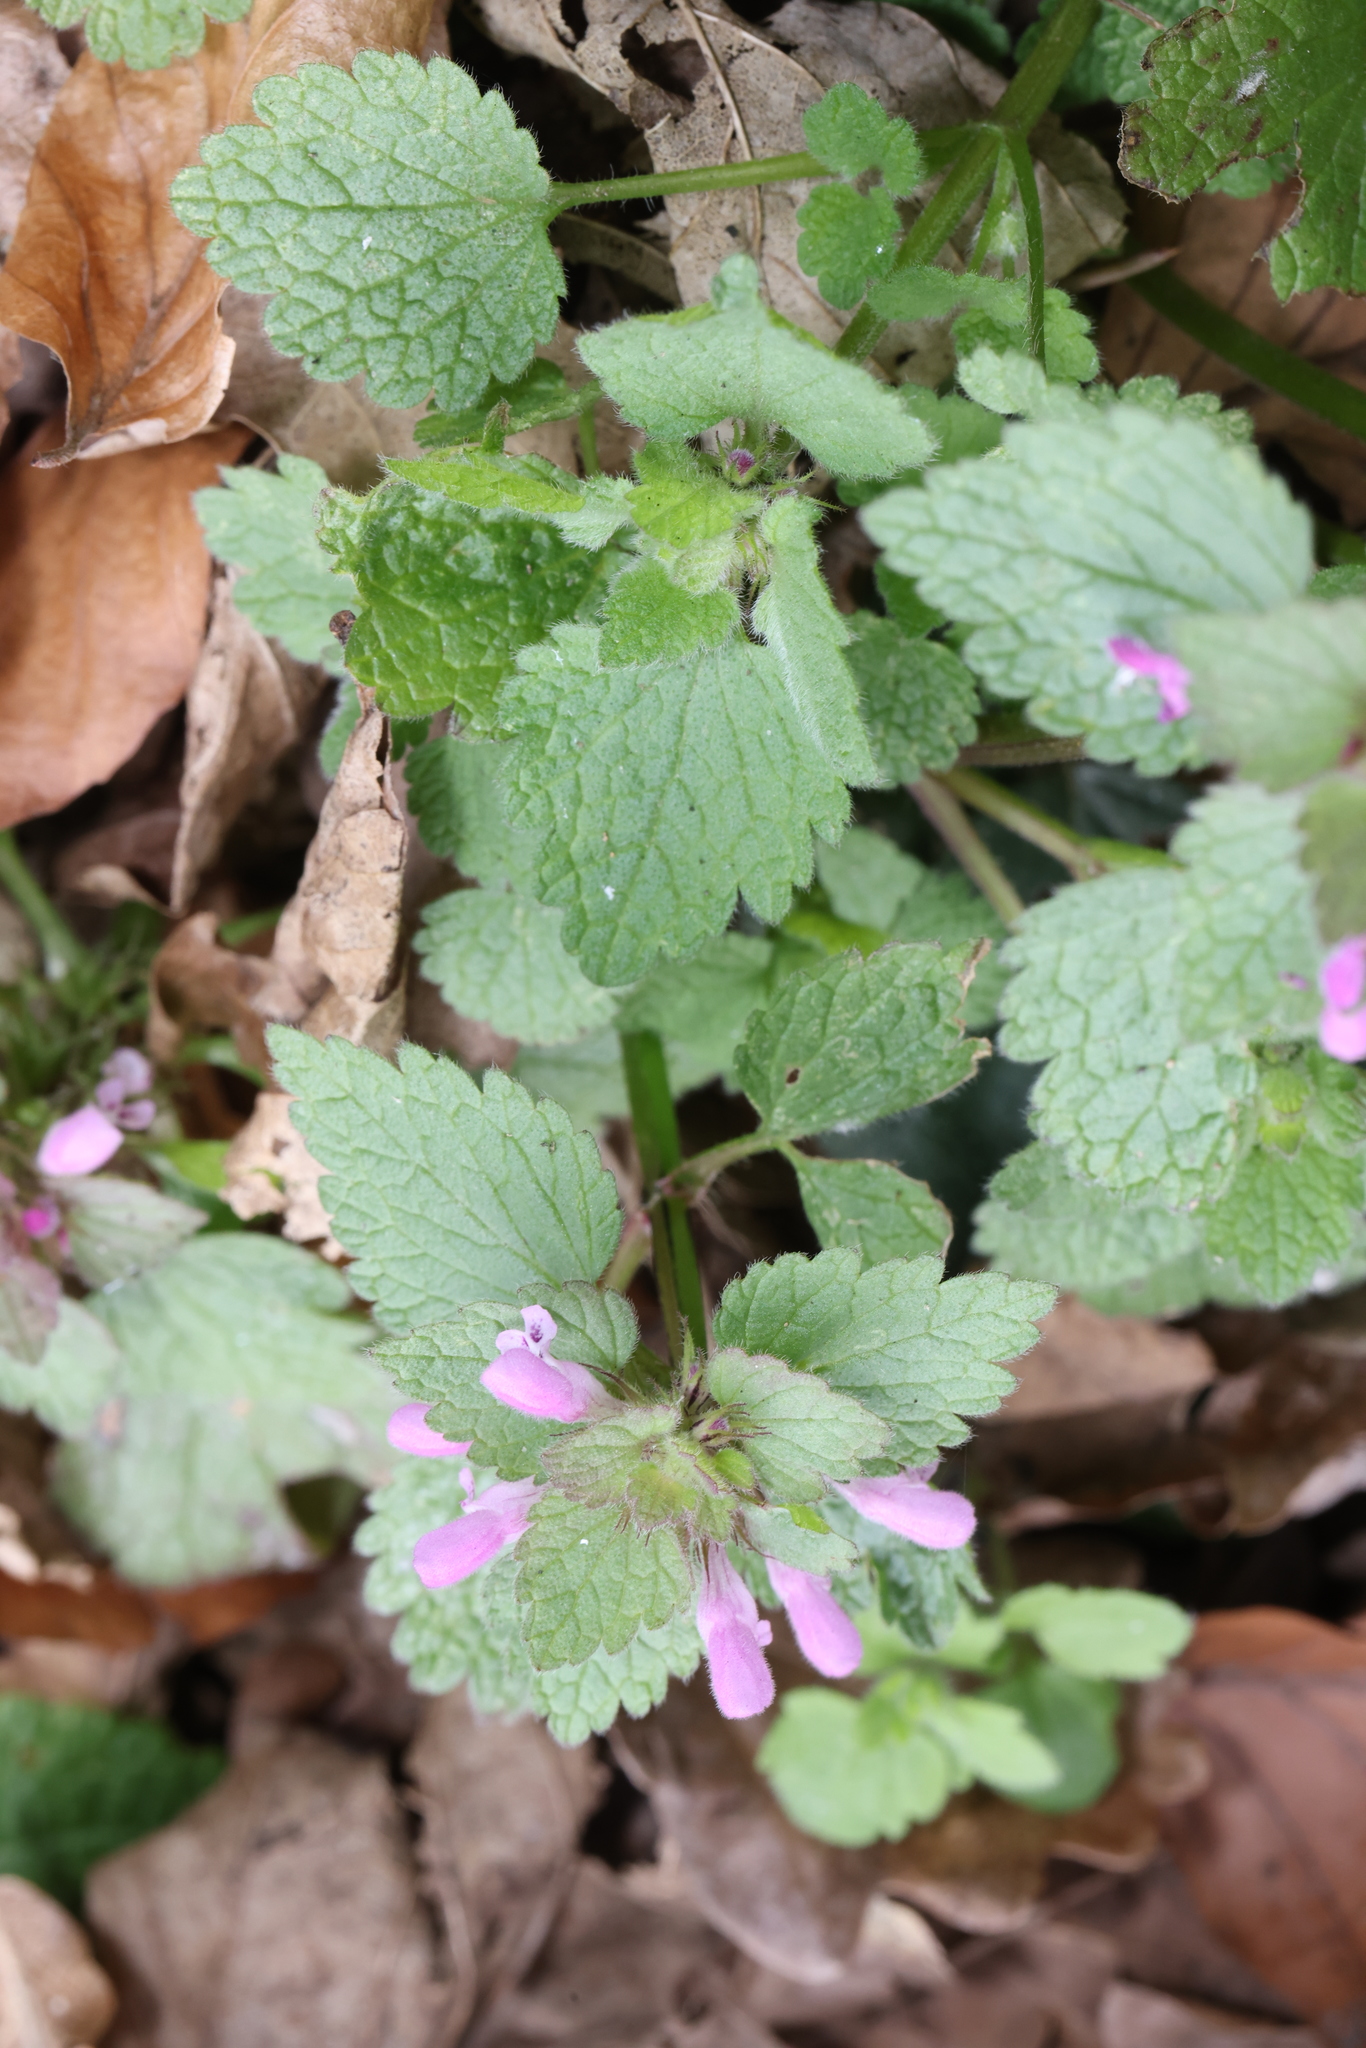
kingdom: Plantae
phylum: Tracheophyta
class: Magnoliopsida
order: Lamiales
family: Lamiaceae
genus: Lamium
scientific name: Lamium purpureum
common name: Red dead-nettle
